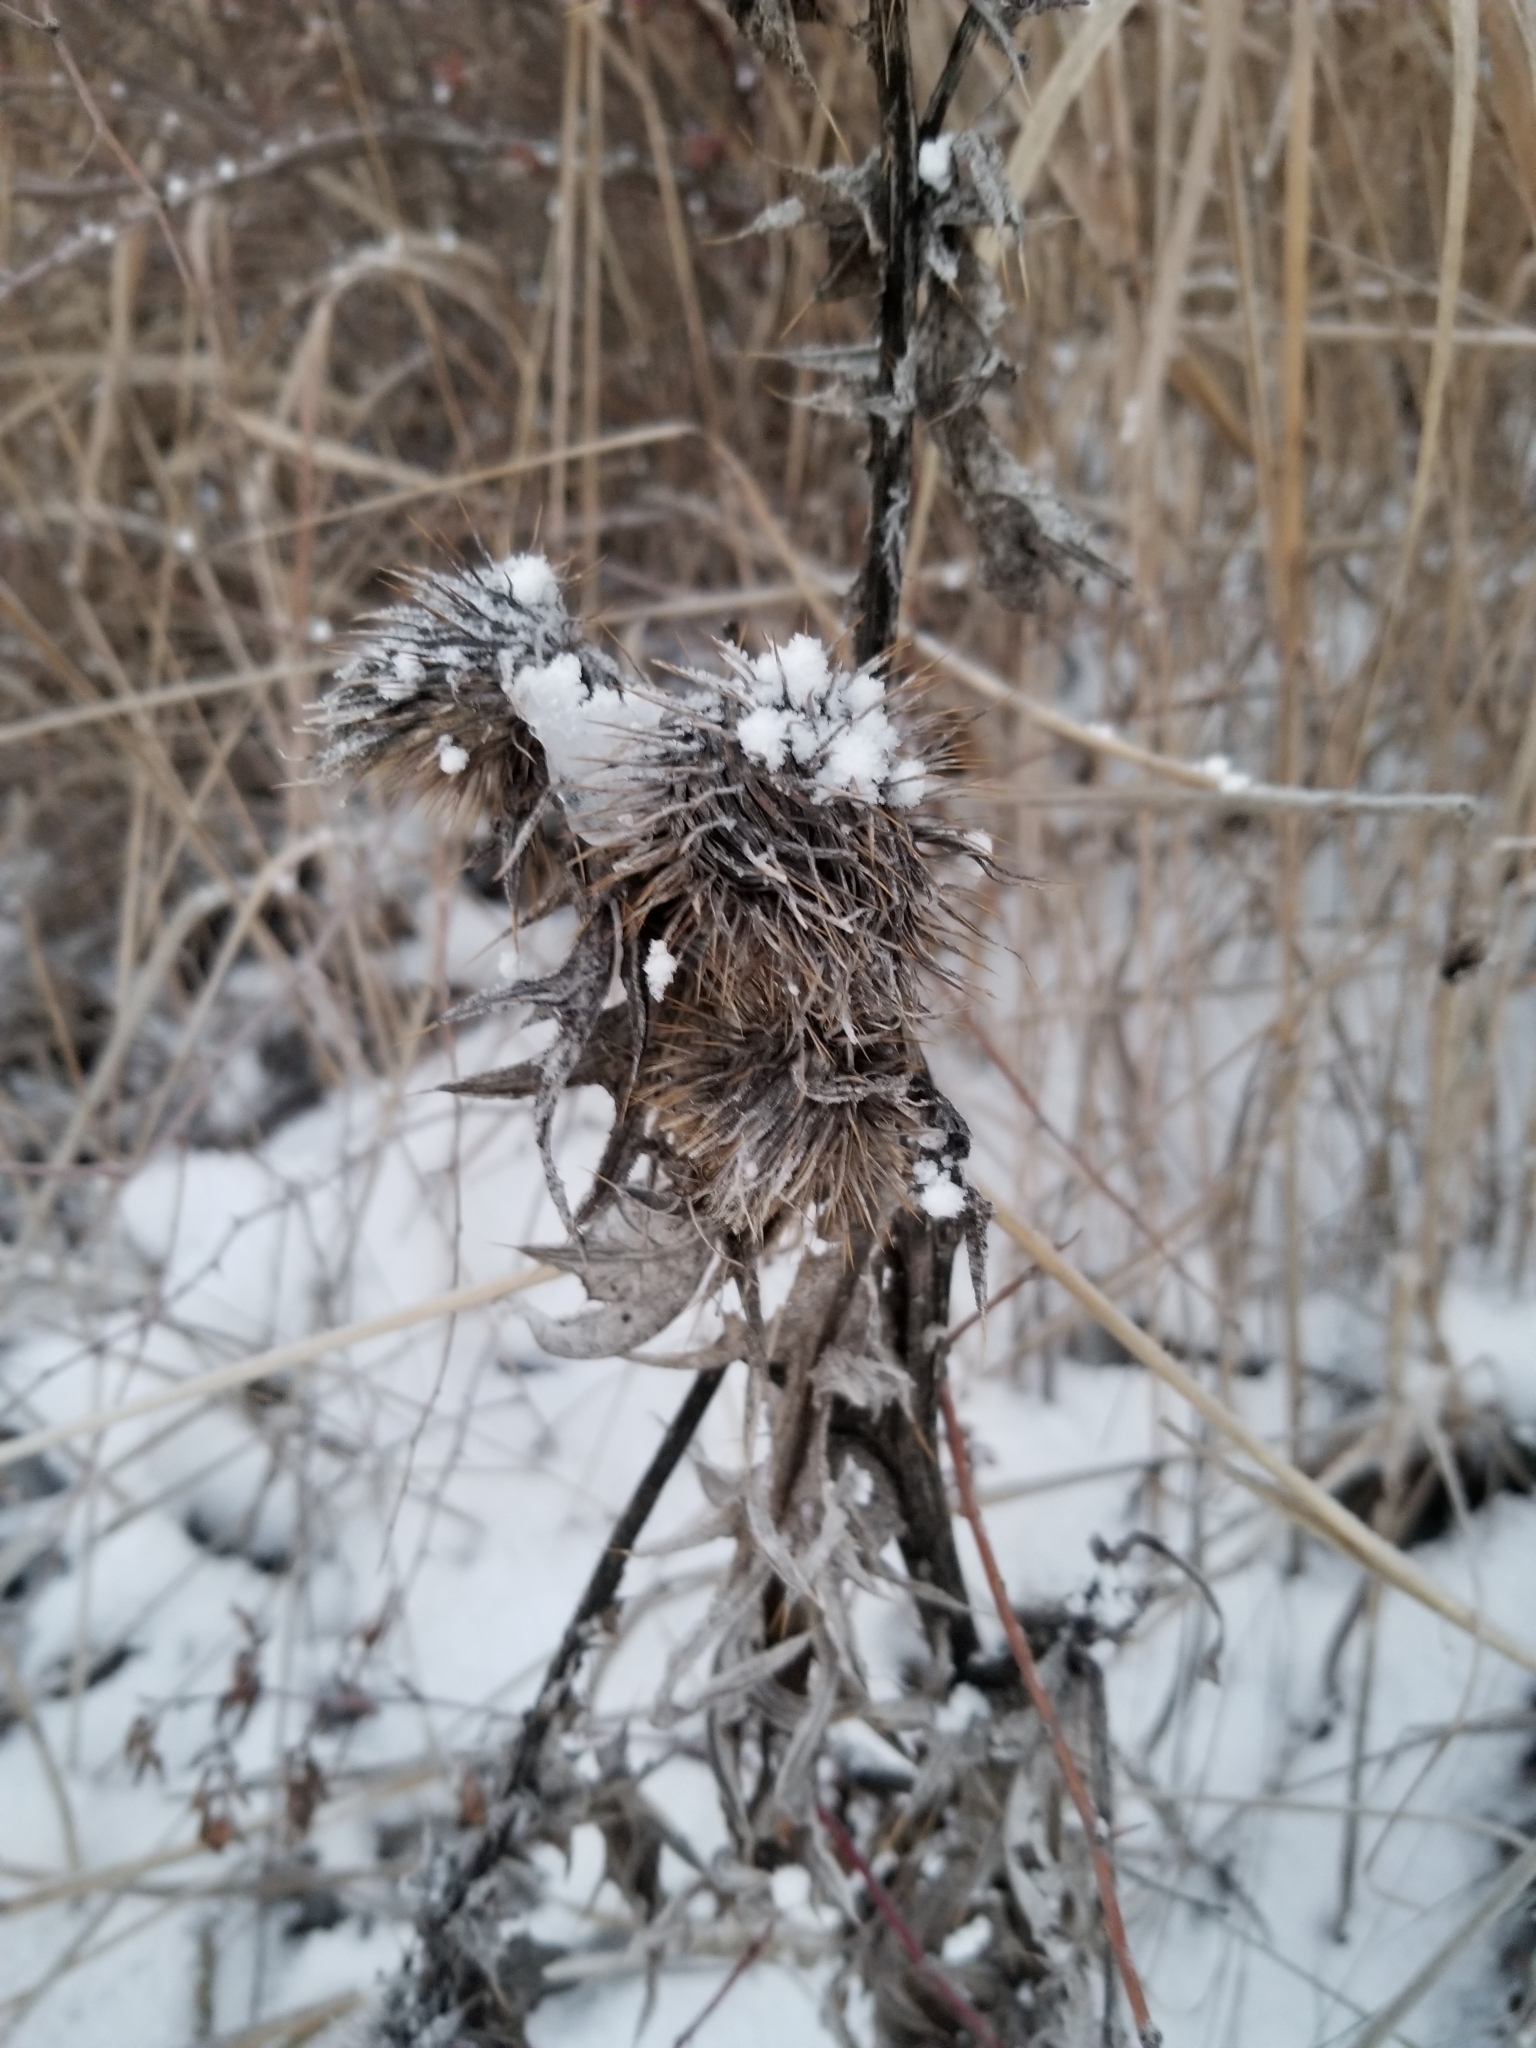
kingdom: Plantae
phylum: Tracheophyta
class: Magnoliopsida
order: Asterales
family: Asteraceae
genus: Cirsium
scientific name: Cirsium vulgare
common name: Bull thistle
